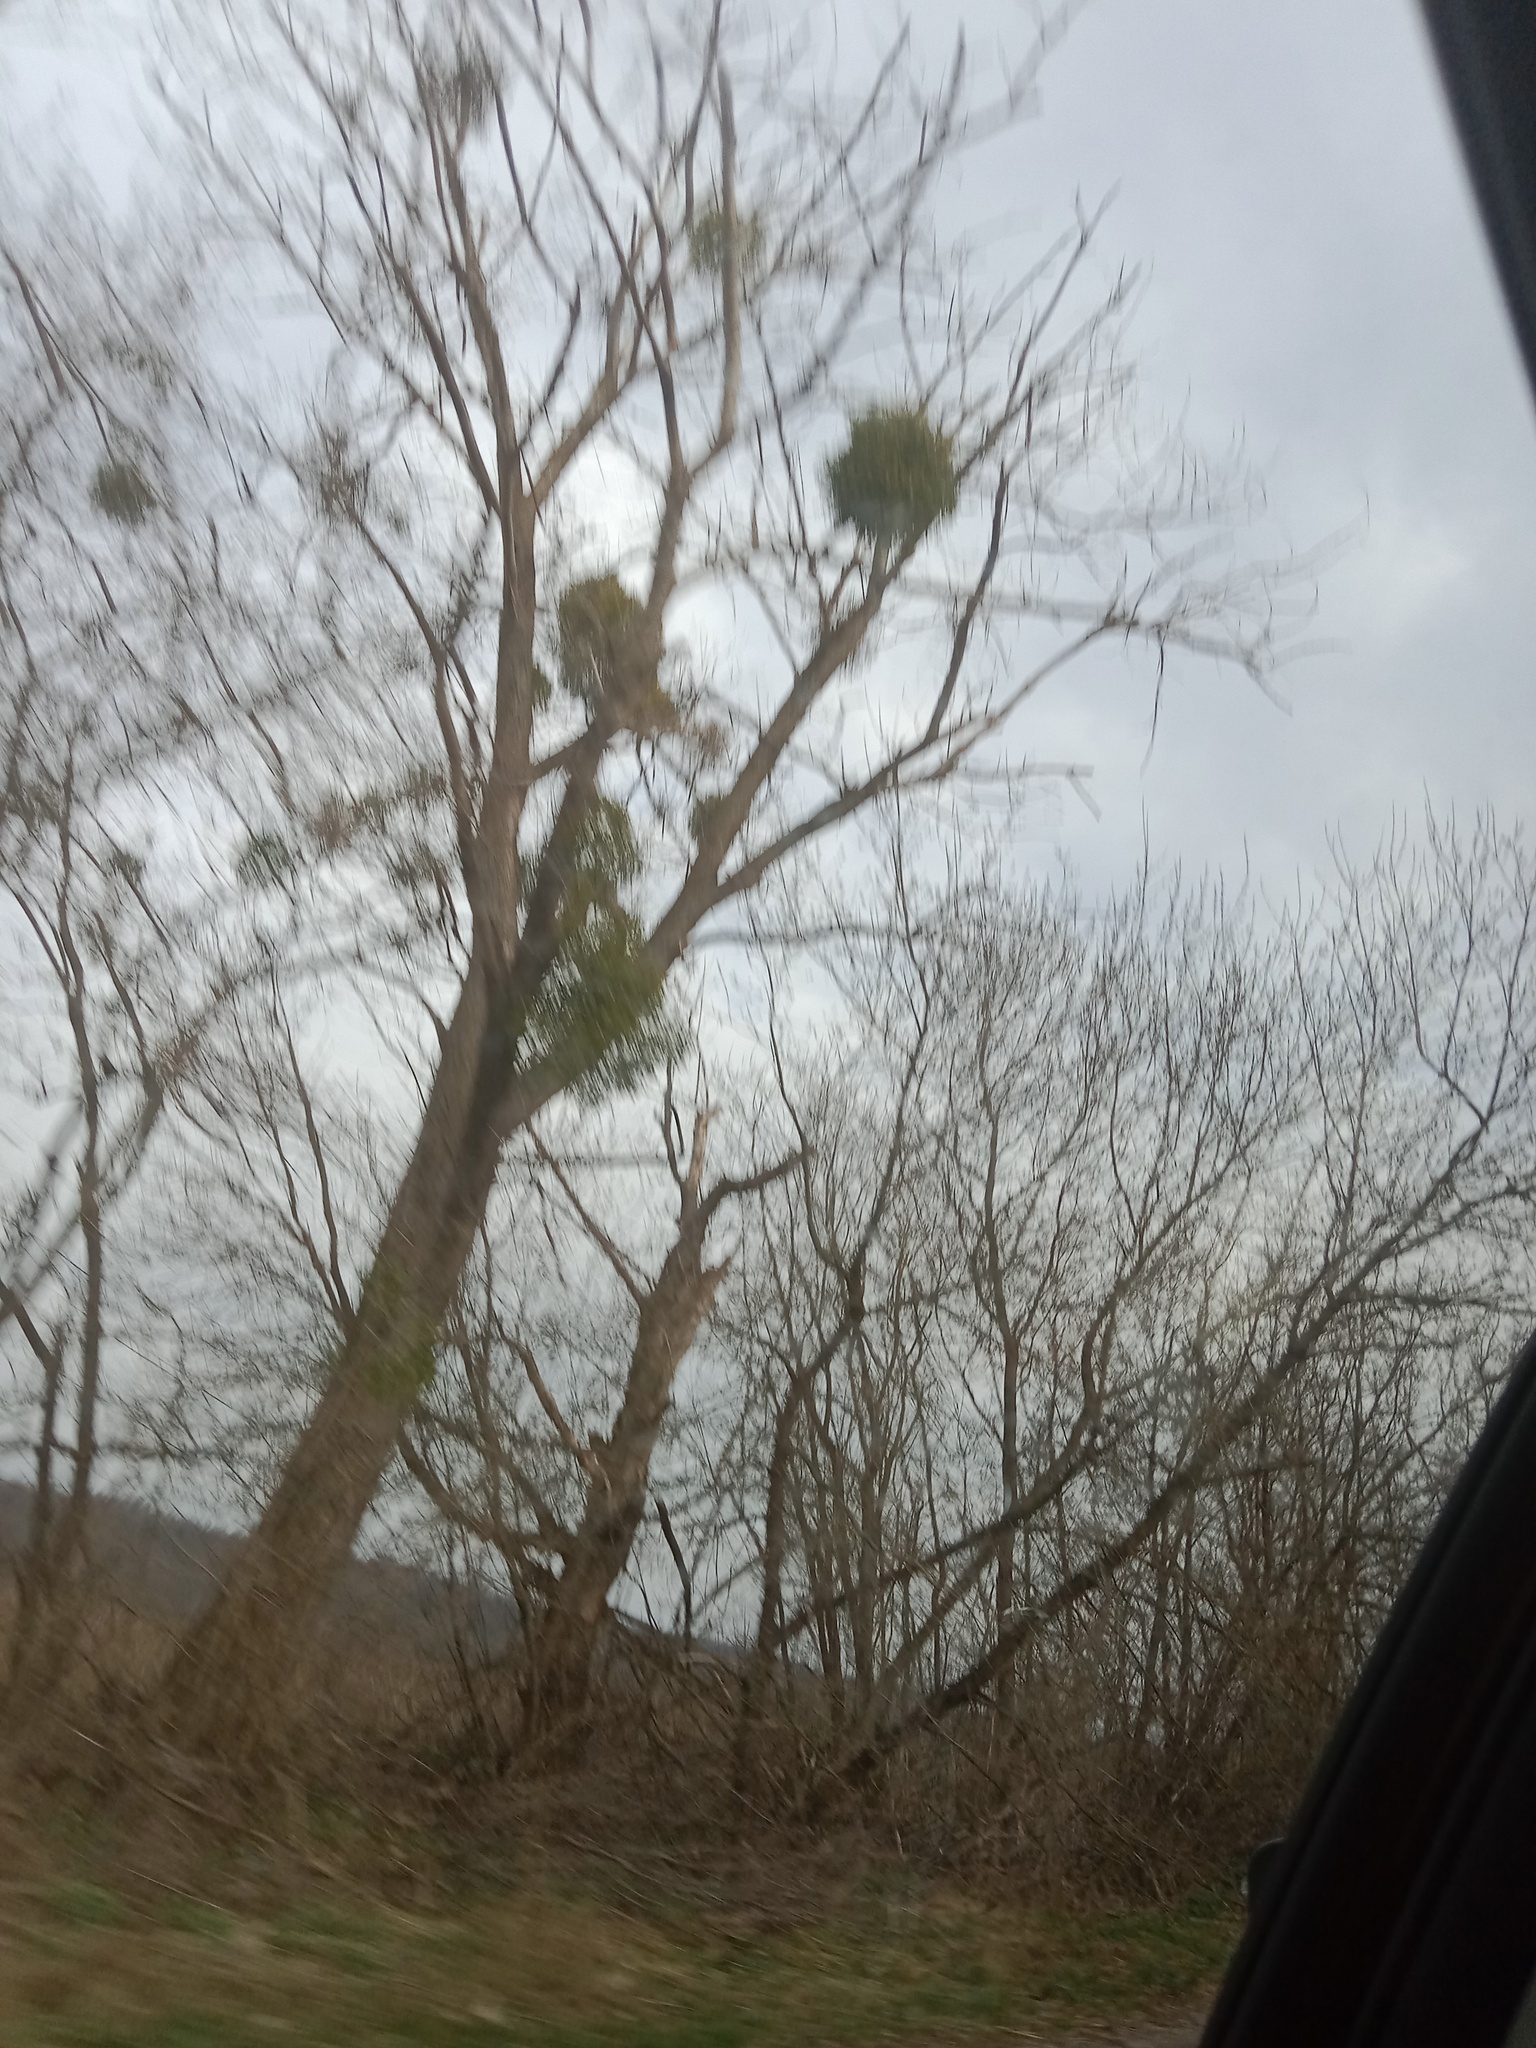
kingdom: Plantae
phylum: Tracheophyta
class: Magnoliopsida
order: Santalales
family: Viscaceae
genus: Viscum
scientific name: Viscum album
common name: Mistletoe
